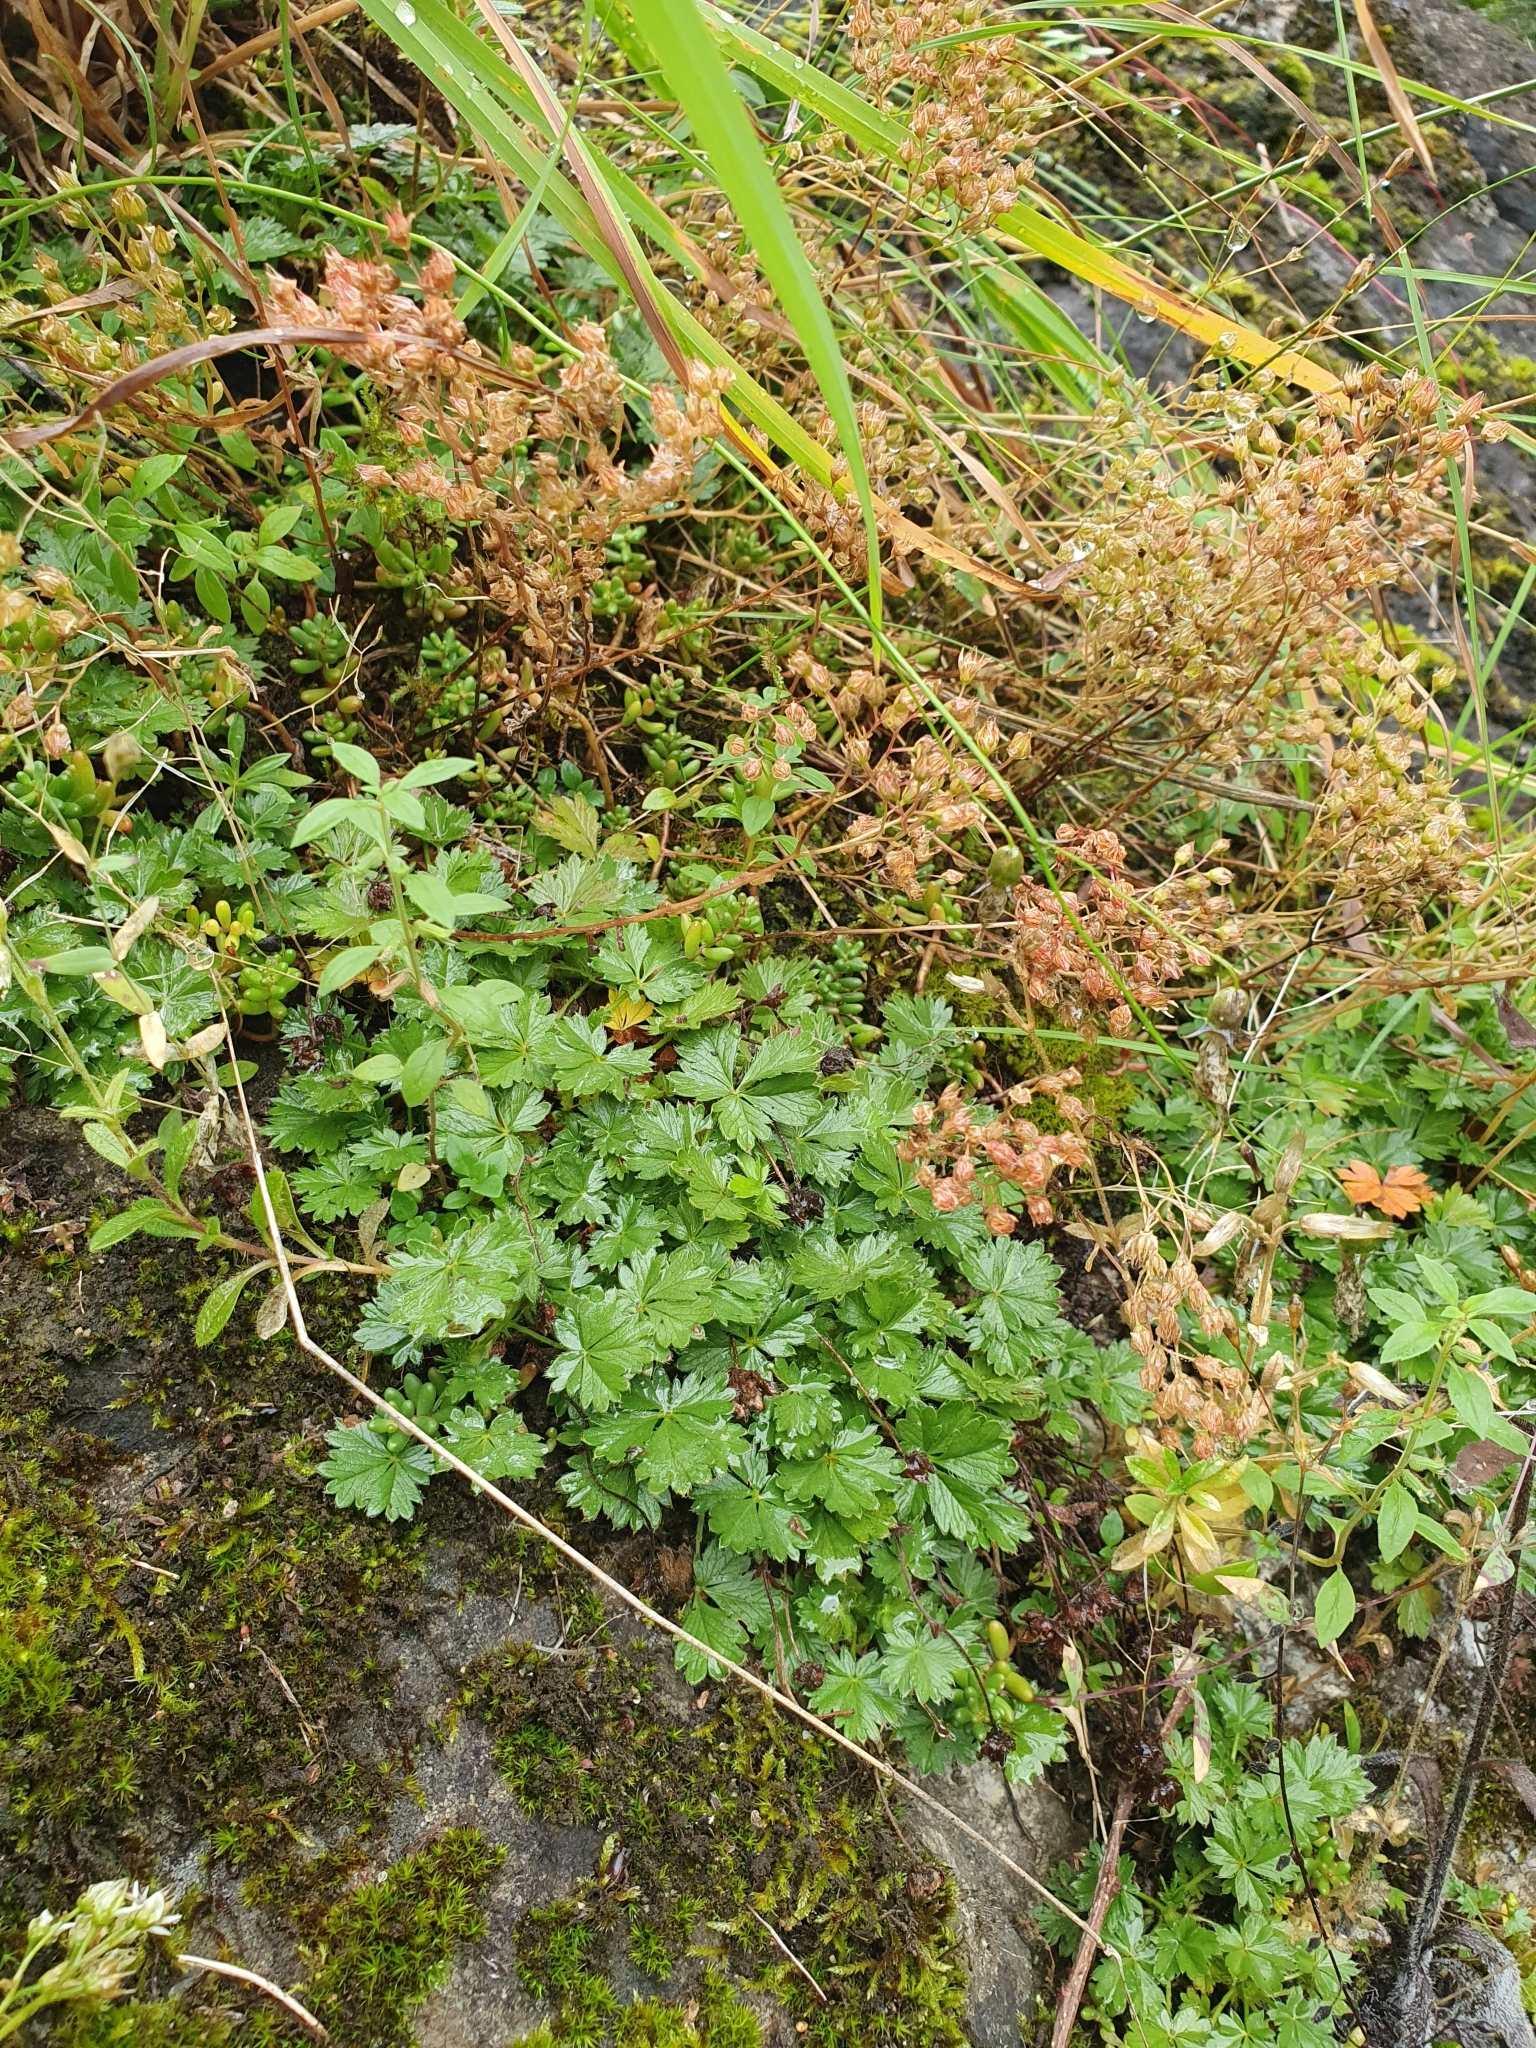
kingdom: Plantae
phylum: Tracheophyta
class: Magnoliopsida
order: Rosales
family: Rosaceae
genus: Potentilla
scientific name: Potentilla verna
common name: Spring cinquefoil
